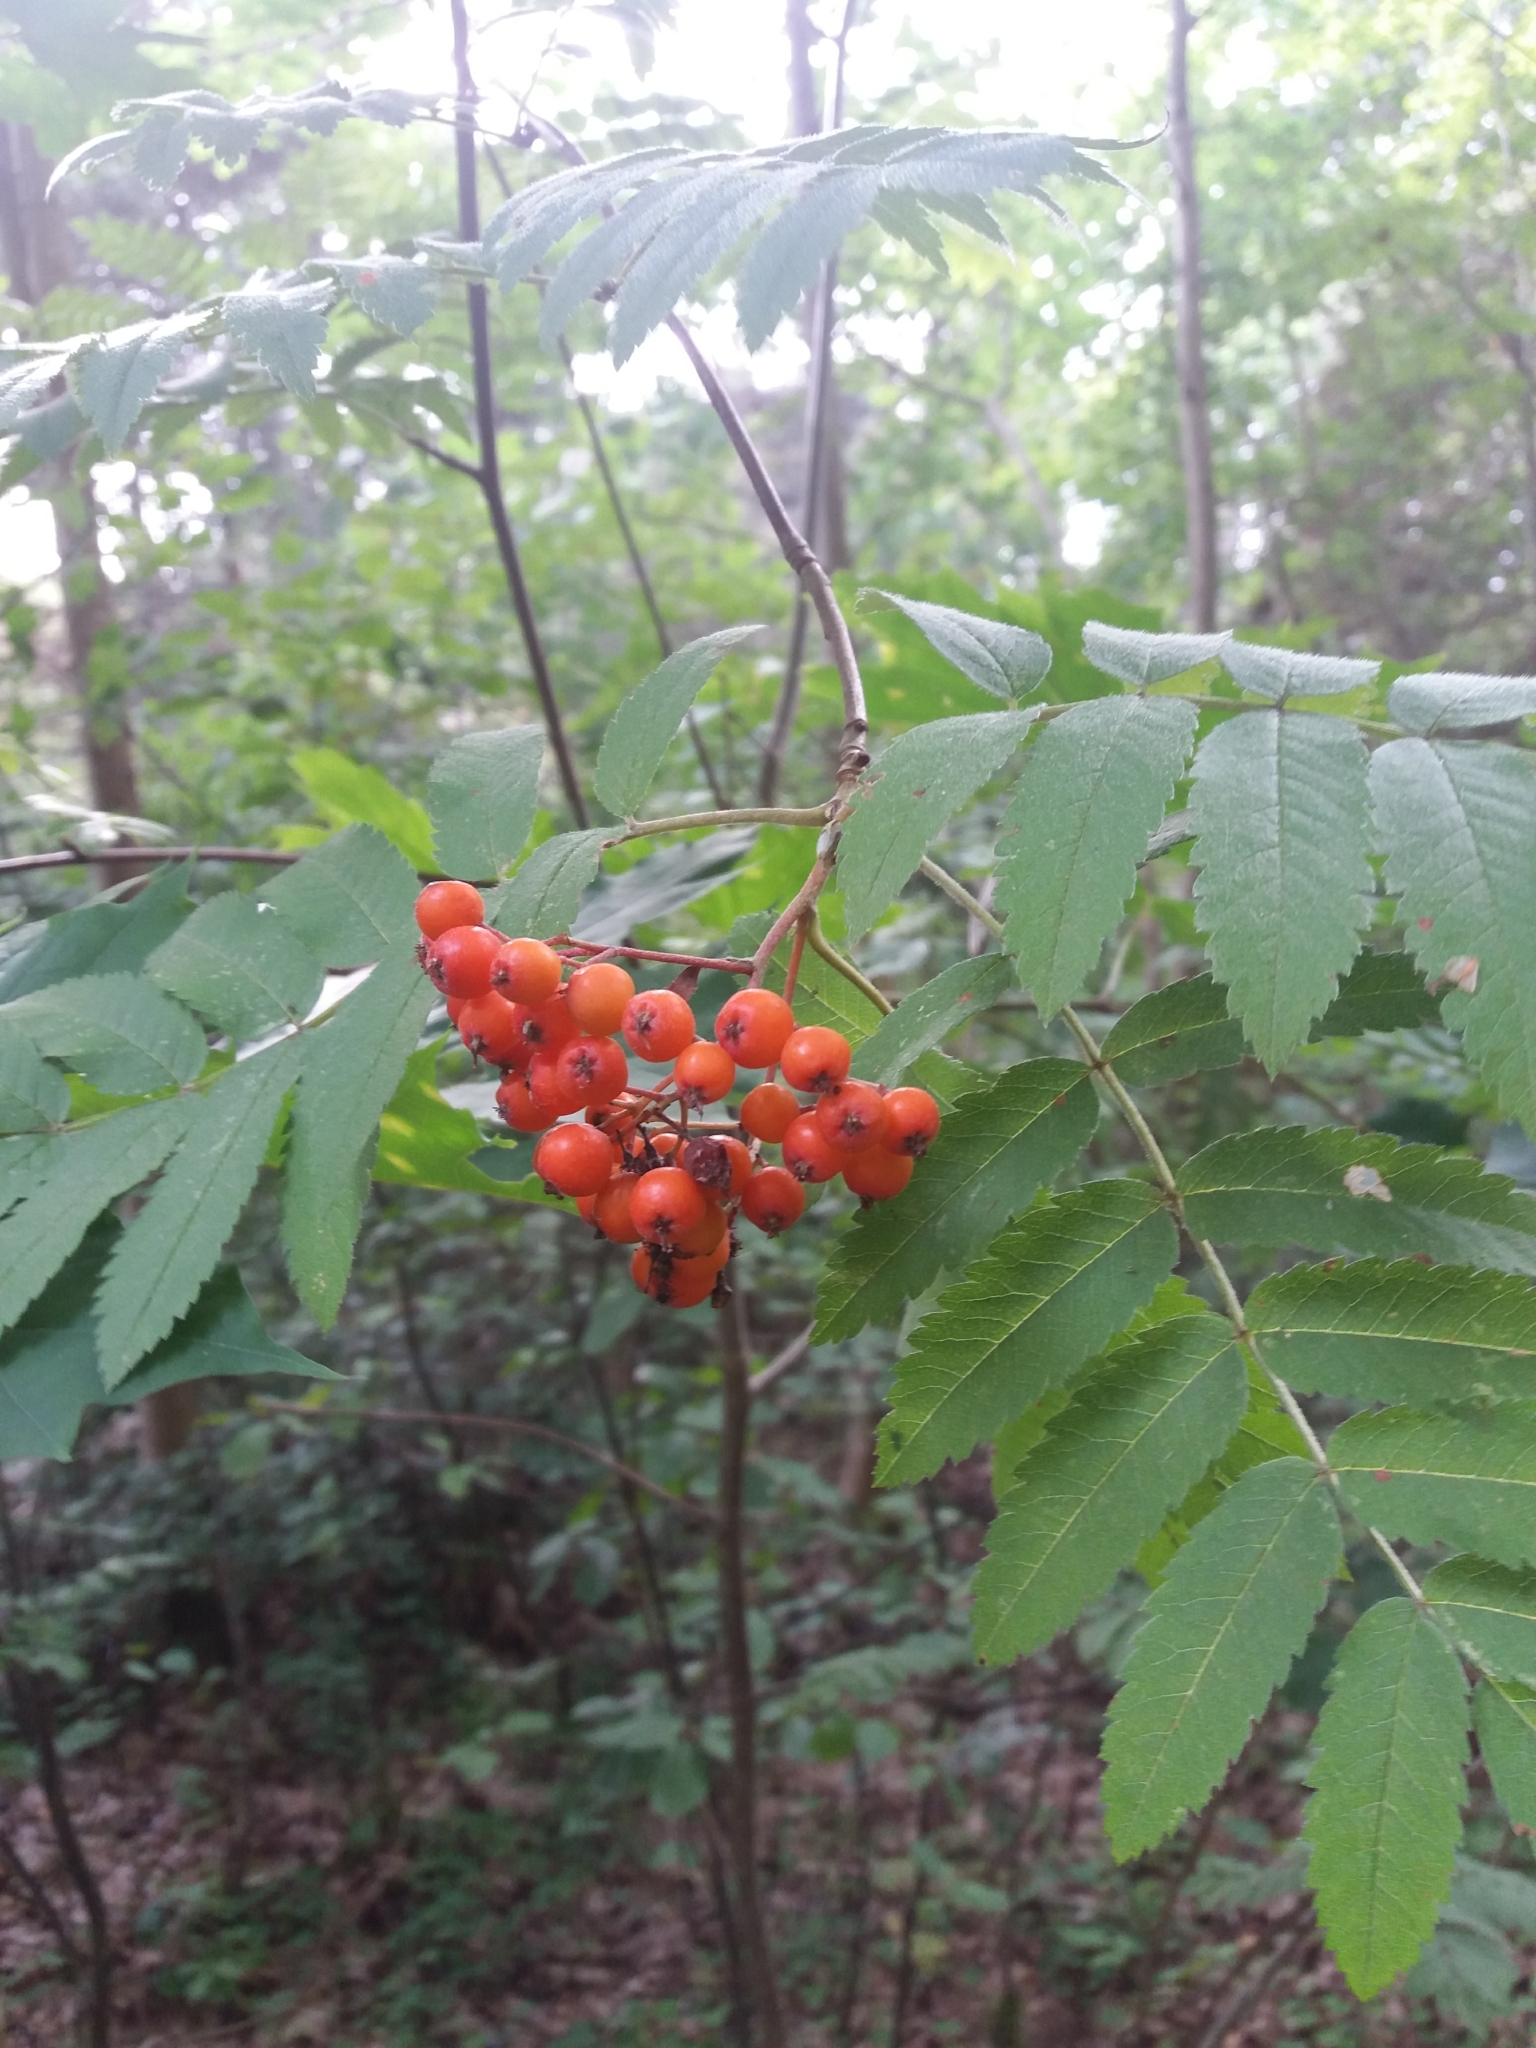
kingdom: Plantae
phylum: Tracheophyta
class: Magnoliopsida
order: Rosales
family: Rosaceae
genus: Sorbus
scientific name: Sorbus aucuparia
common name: Rowan
